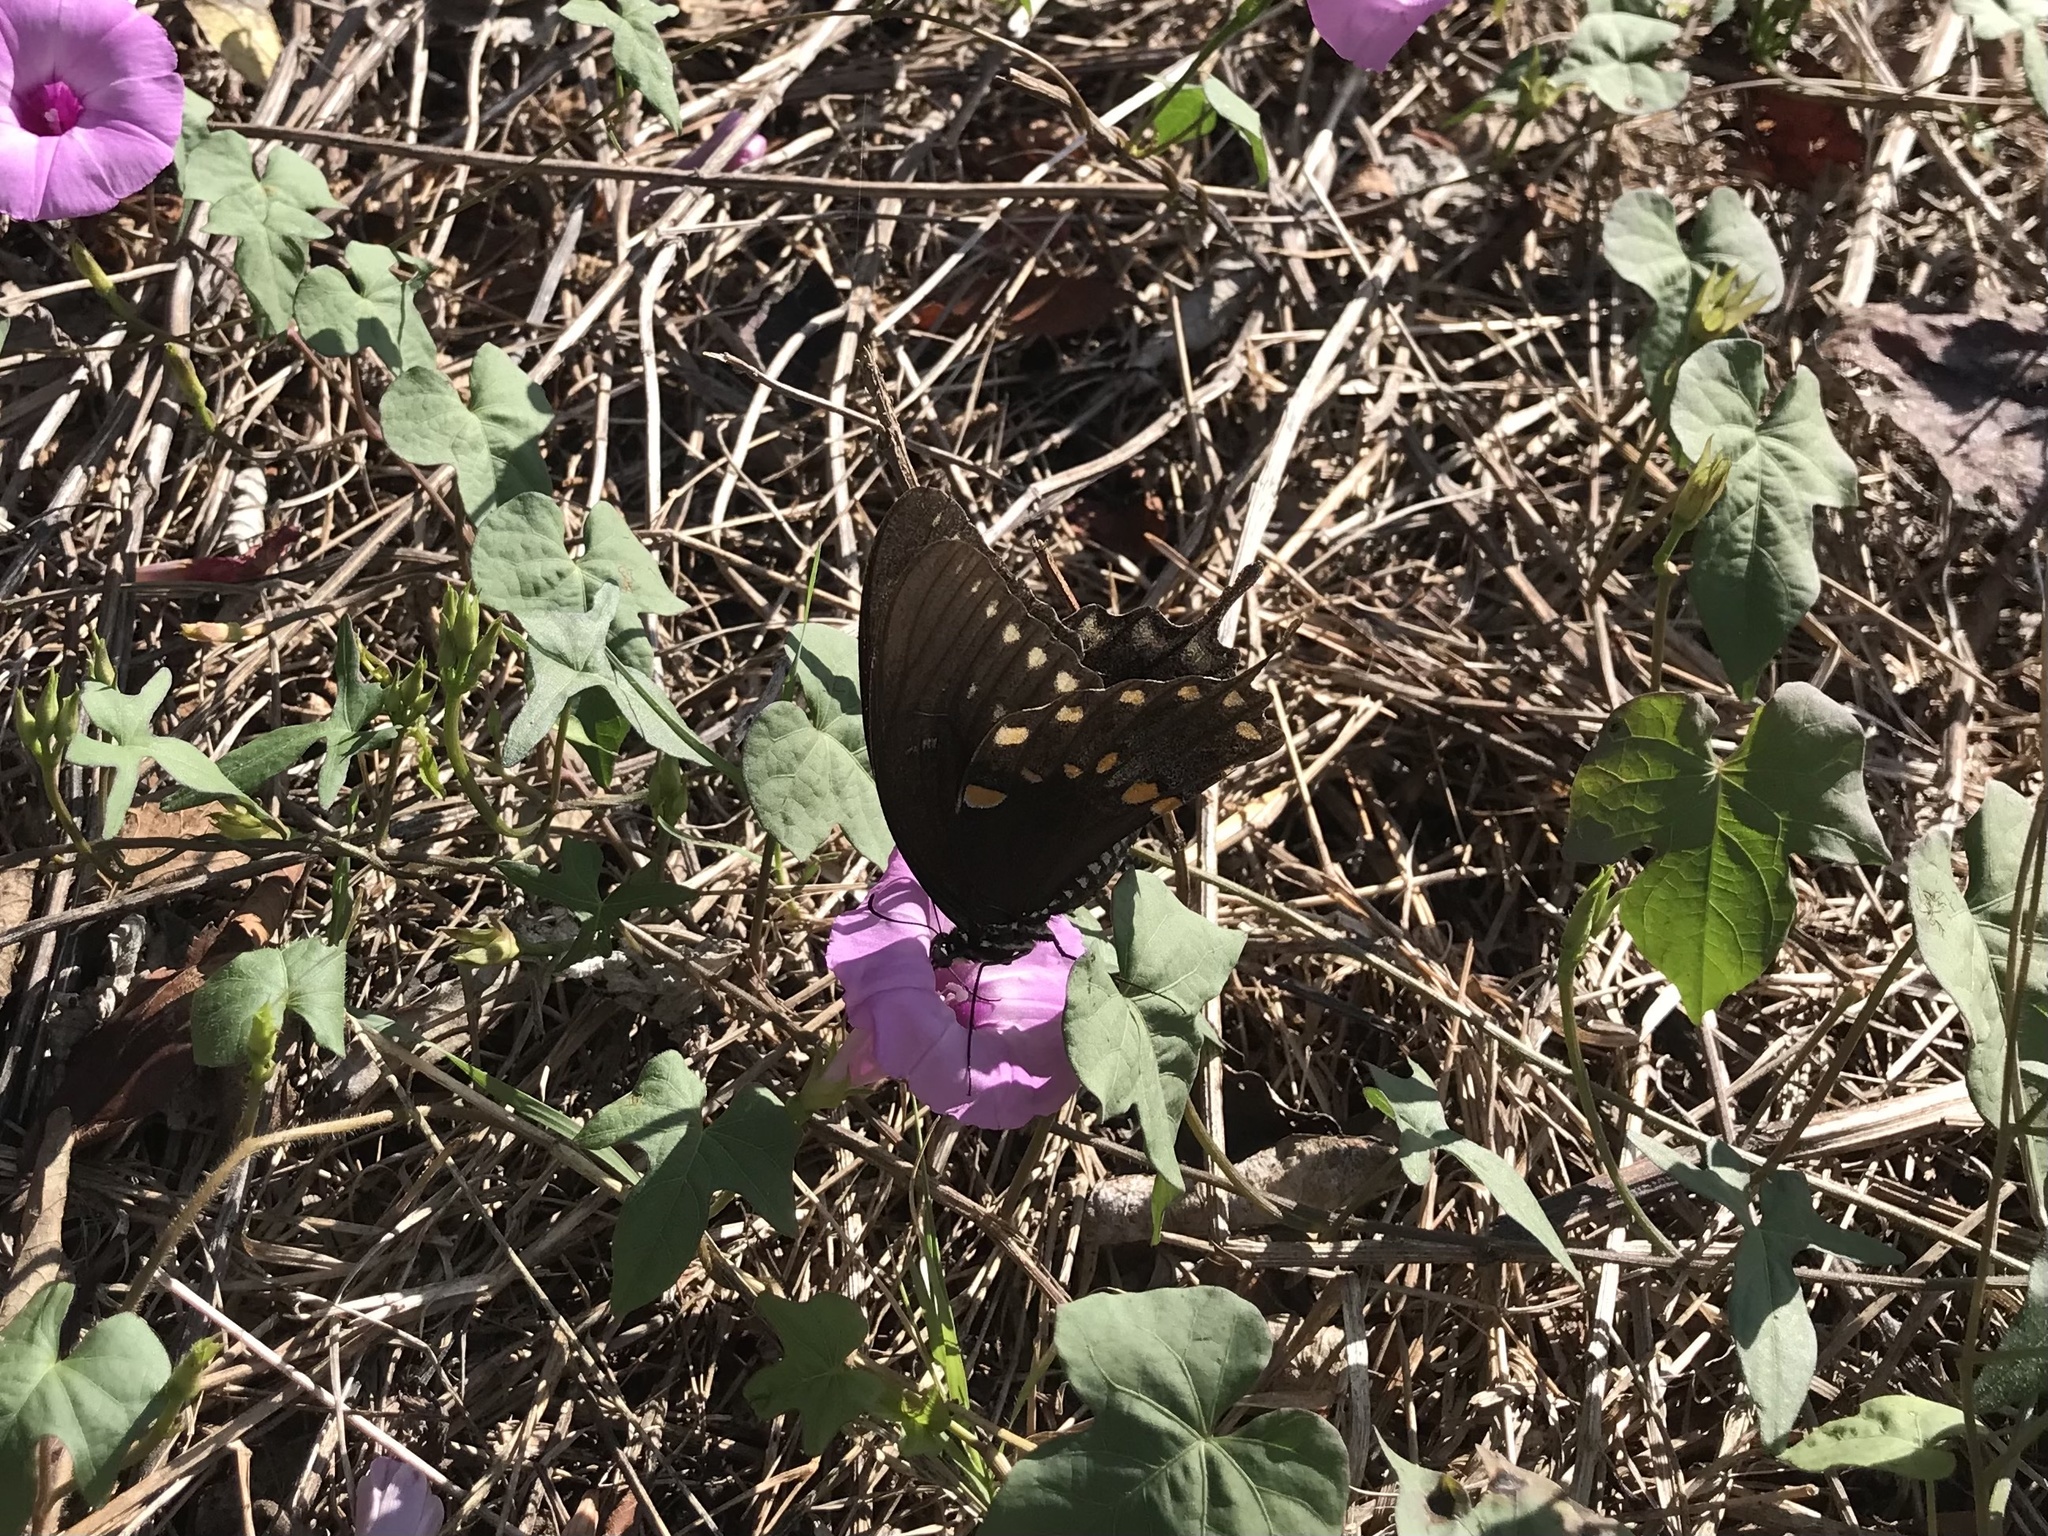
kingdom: Animalia
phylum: Arthropoda
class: Insecta
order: Lepidoptera
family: Papilionidae
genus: Papilio
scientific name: Papilio troilus
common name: Spicebush swallowtail
